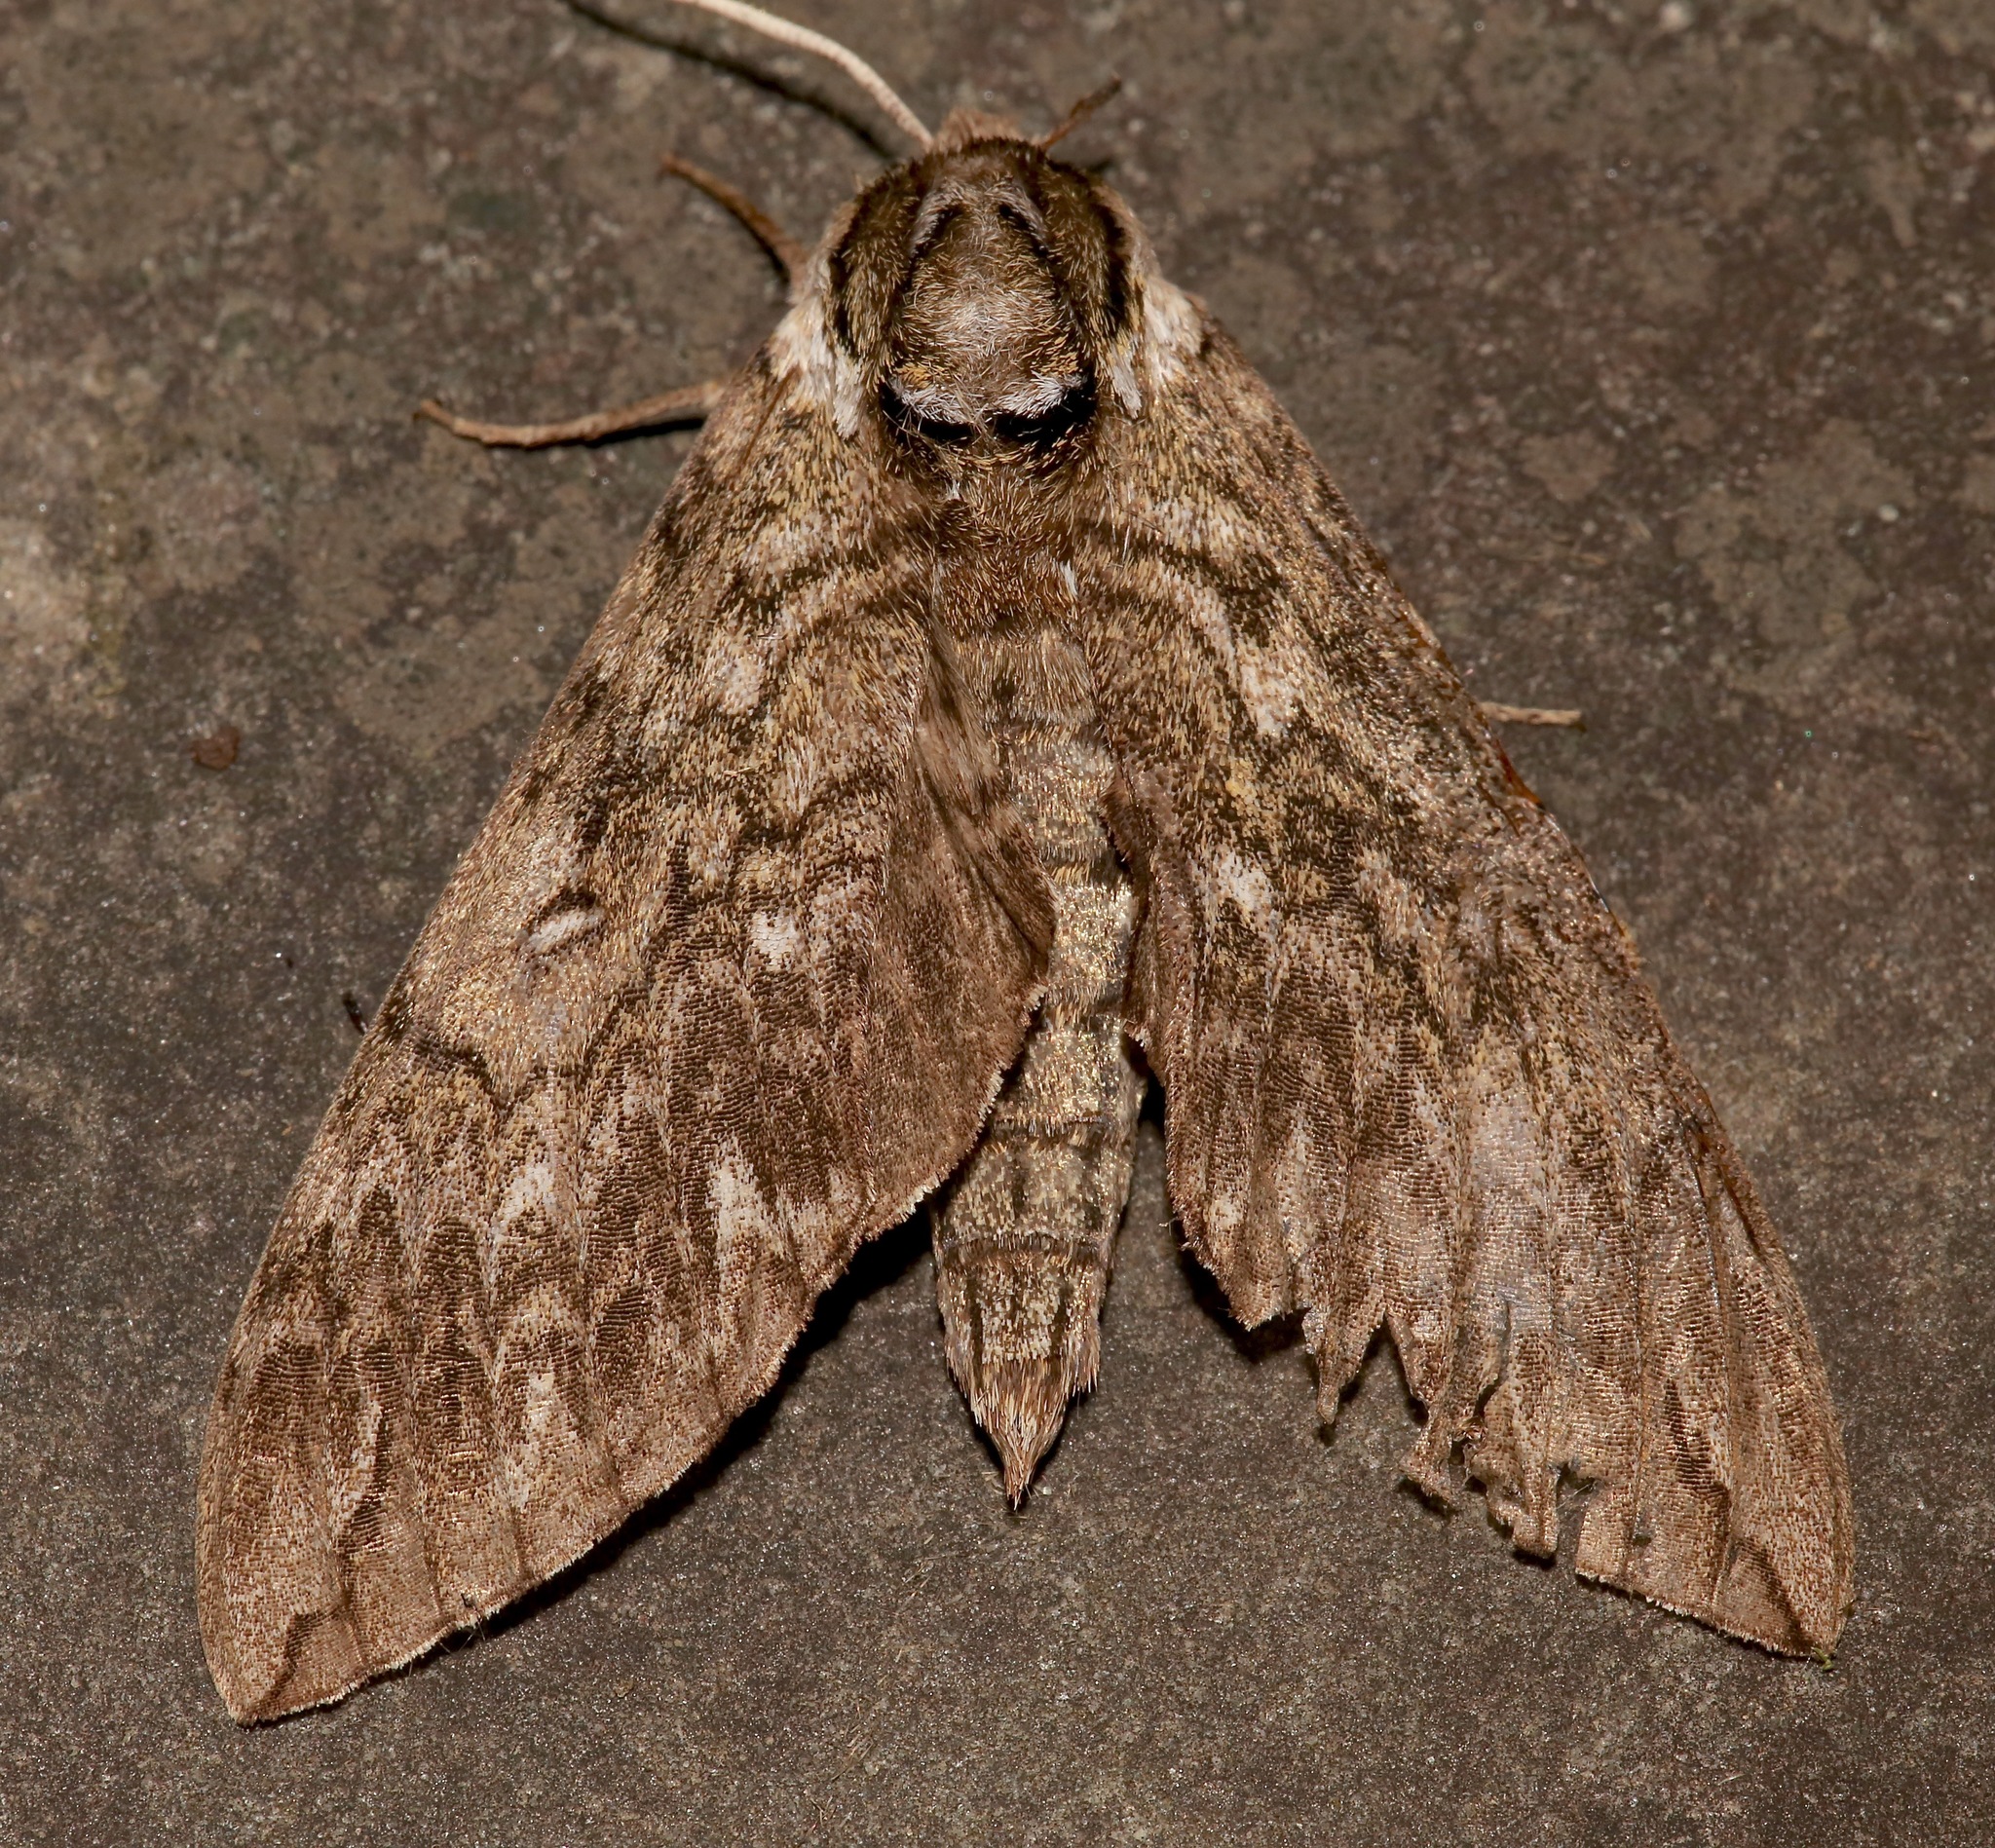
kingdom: Animalia
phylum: Arthropoda
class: Insecta
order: Lepidoptera
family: Sphingidae
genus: Ceratomia
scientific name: Ceratomia undulosa
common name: Waved sphinx
